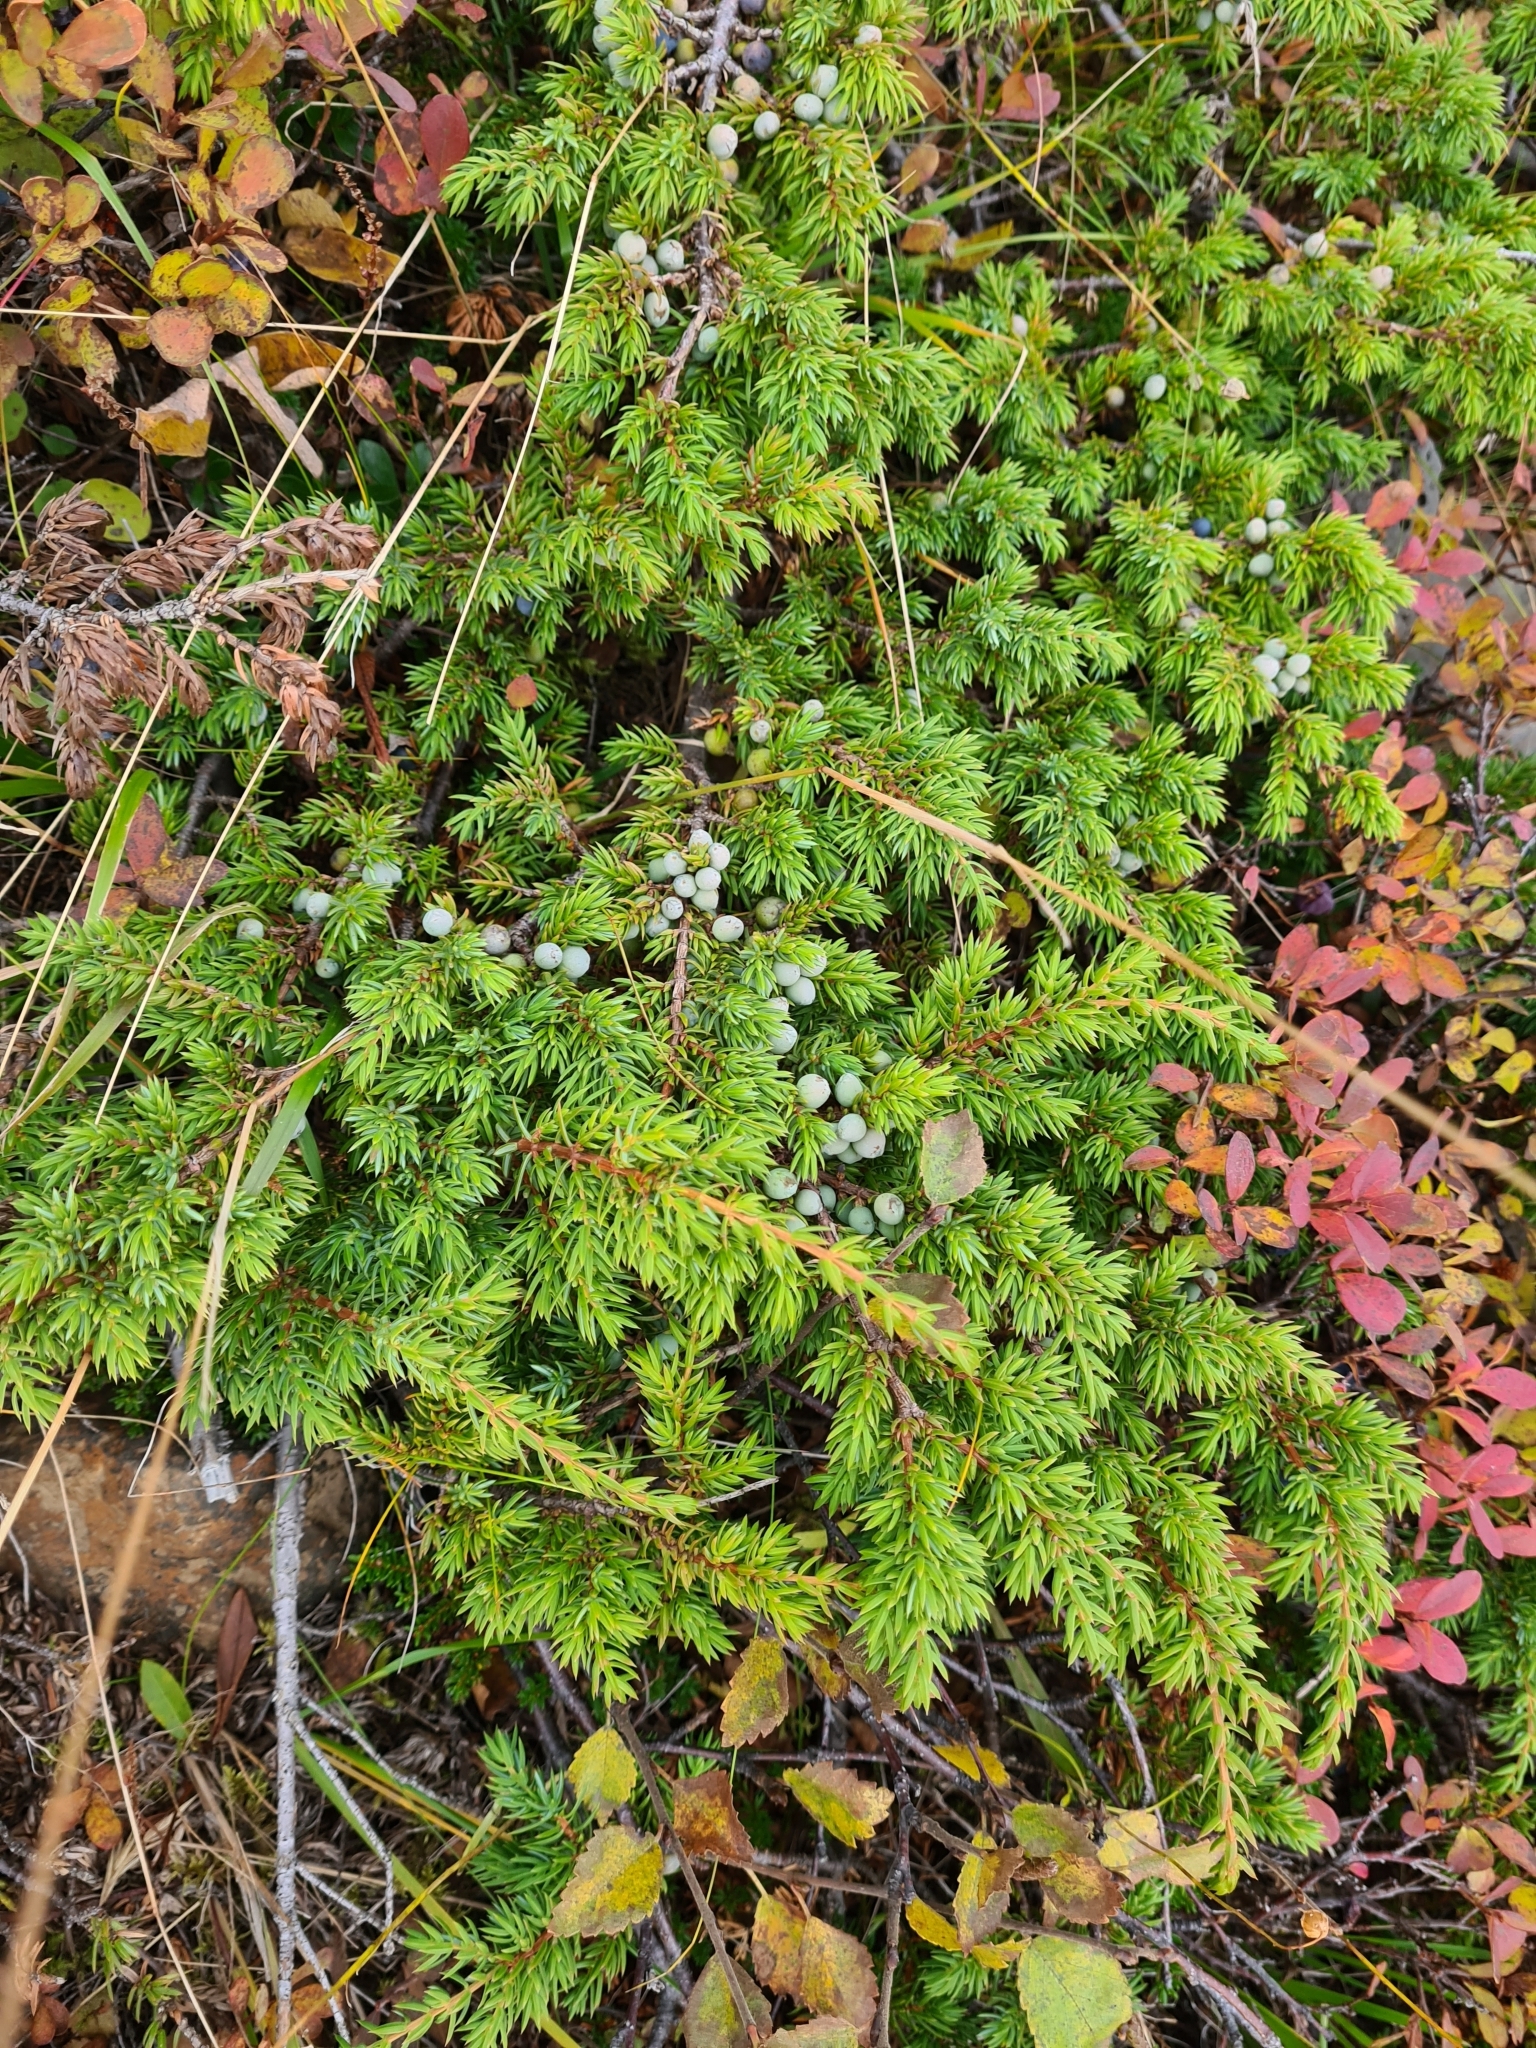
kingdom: Plantae
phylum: Tracheophyta
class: Pinopsida
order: Pinales
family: Cupressaceae
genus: Juniperus
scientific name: Juniperus communis
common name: Common juniper
